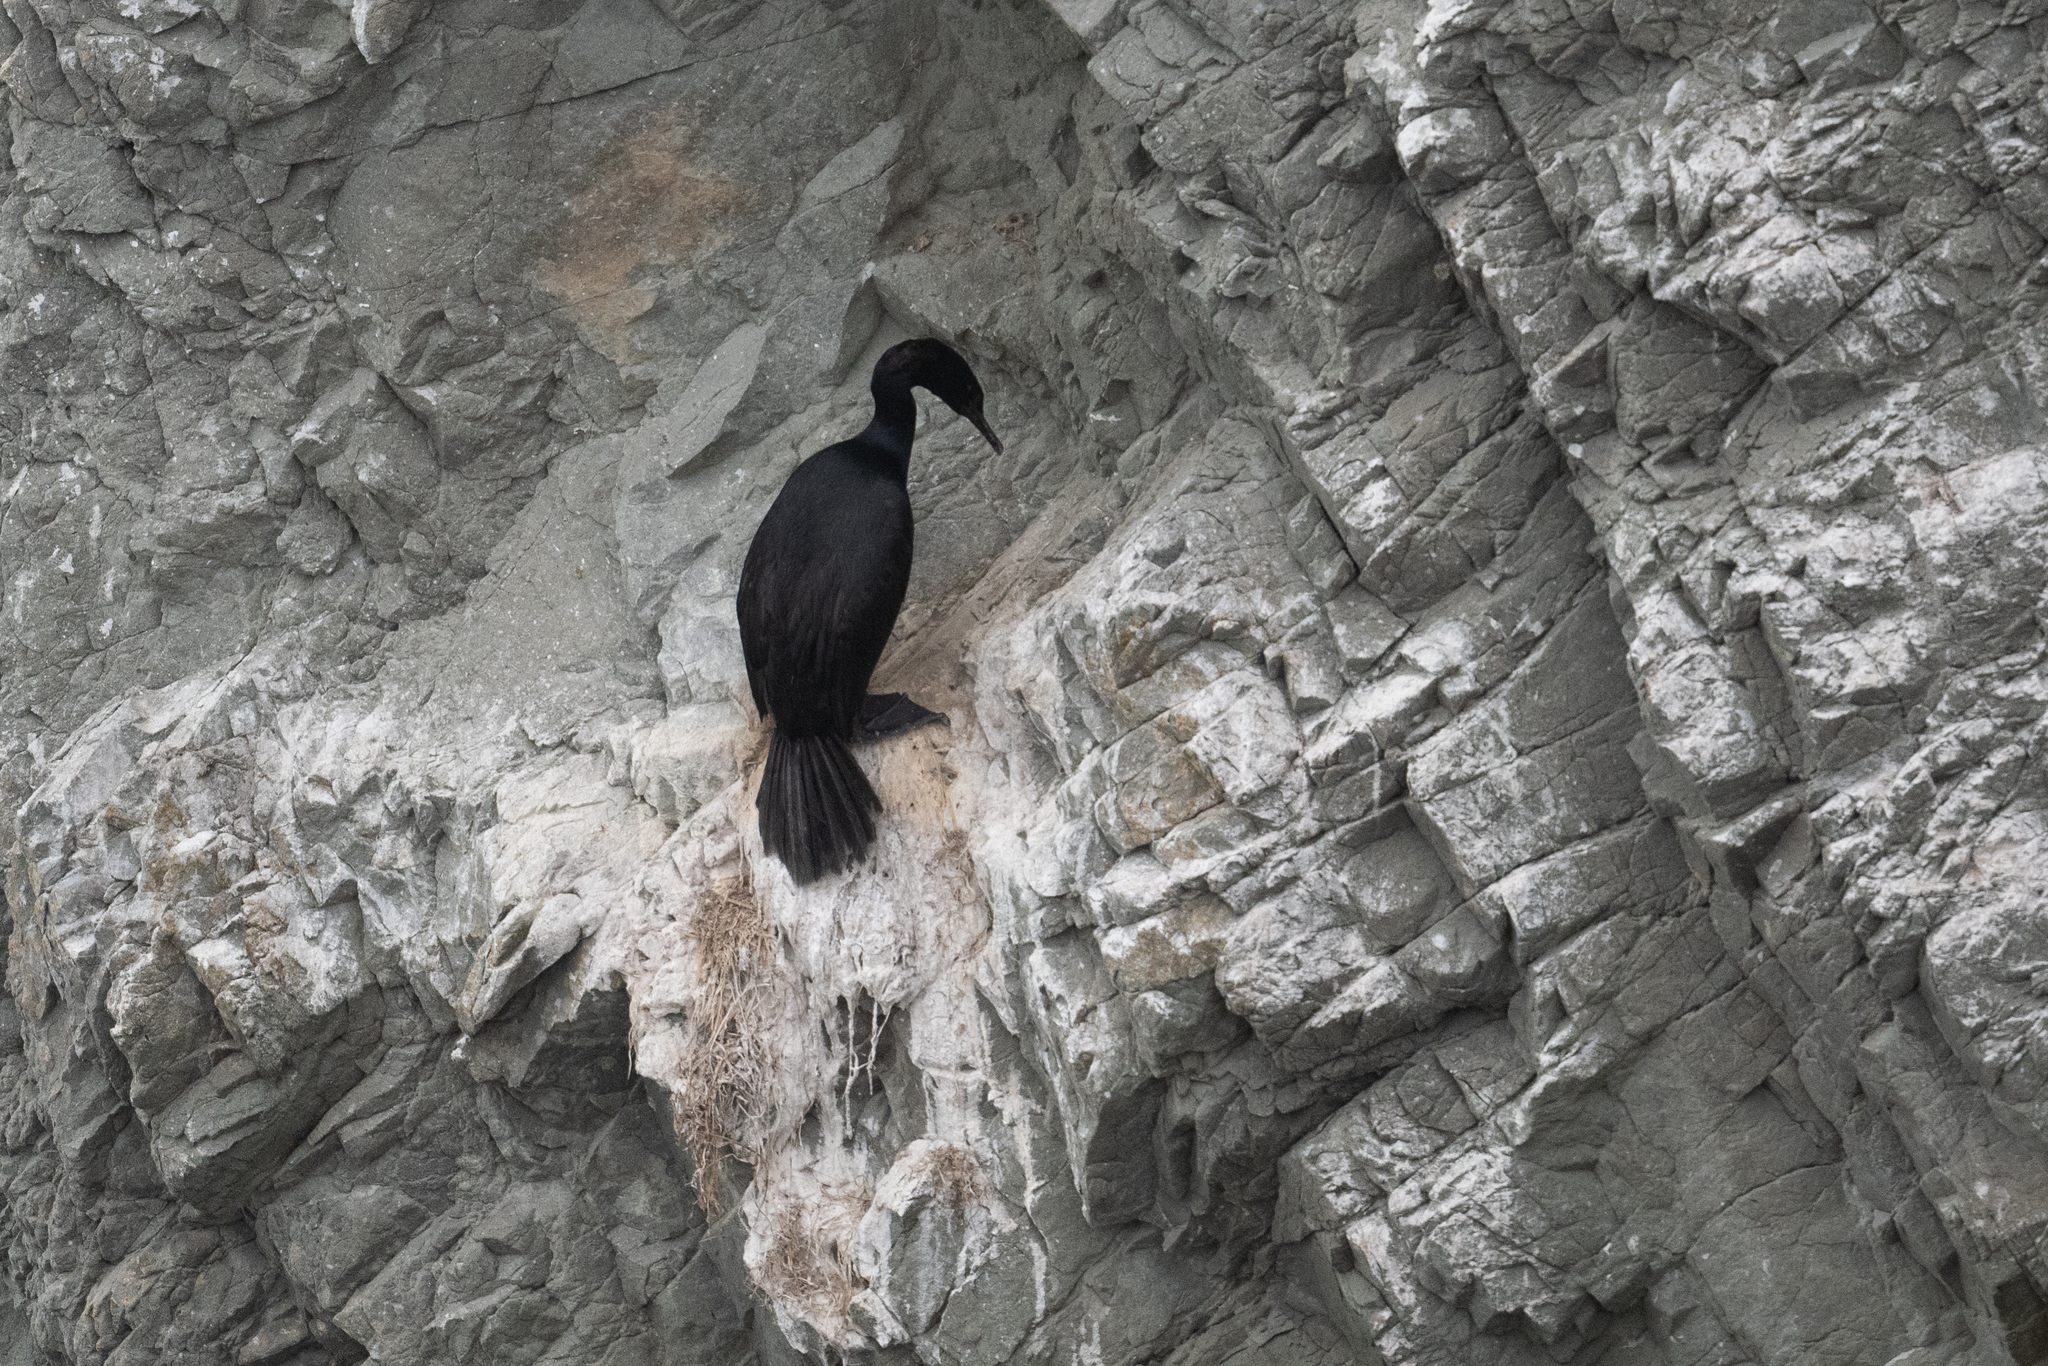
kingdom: Animalia
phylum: Chordata
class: Aves
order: Suliformes
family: Phalacrocoracidae
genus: Phalacrocorax
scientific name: Phalacrocorax pelagicus
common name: Pelagic cormorant
